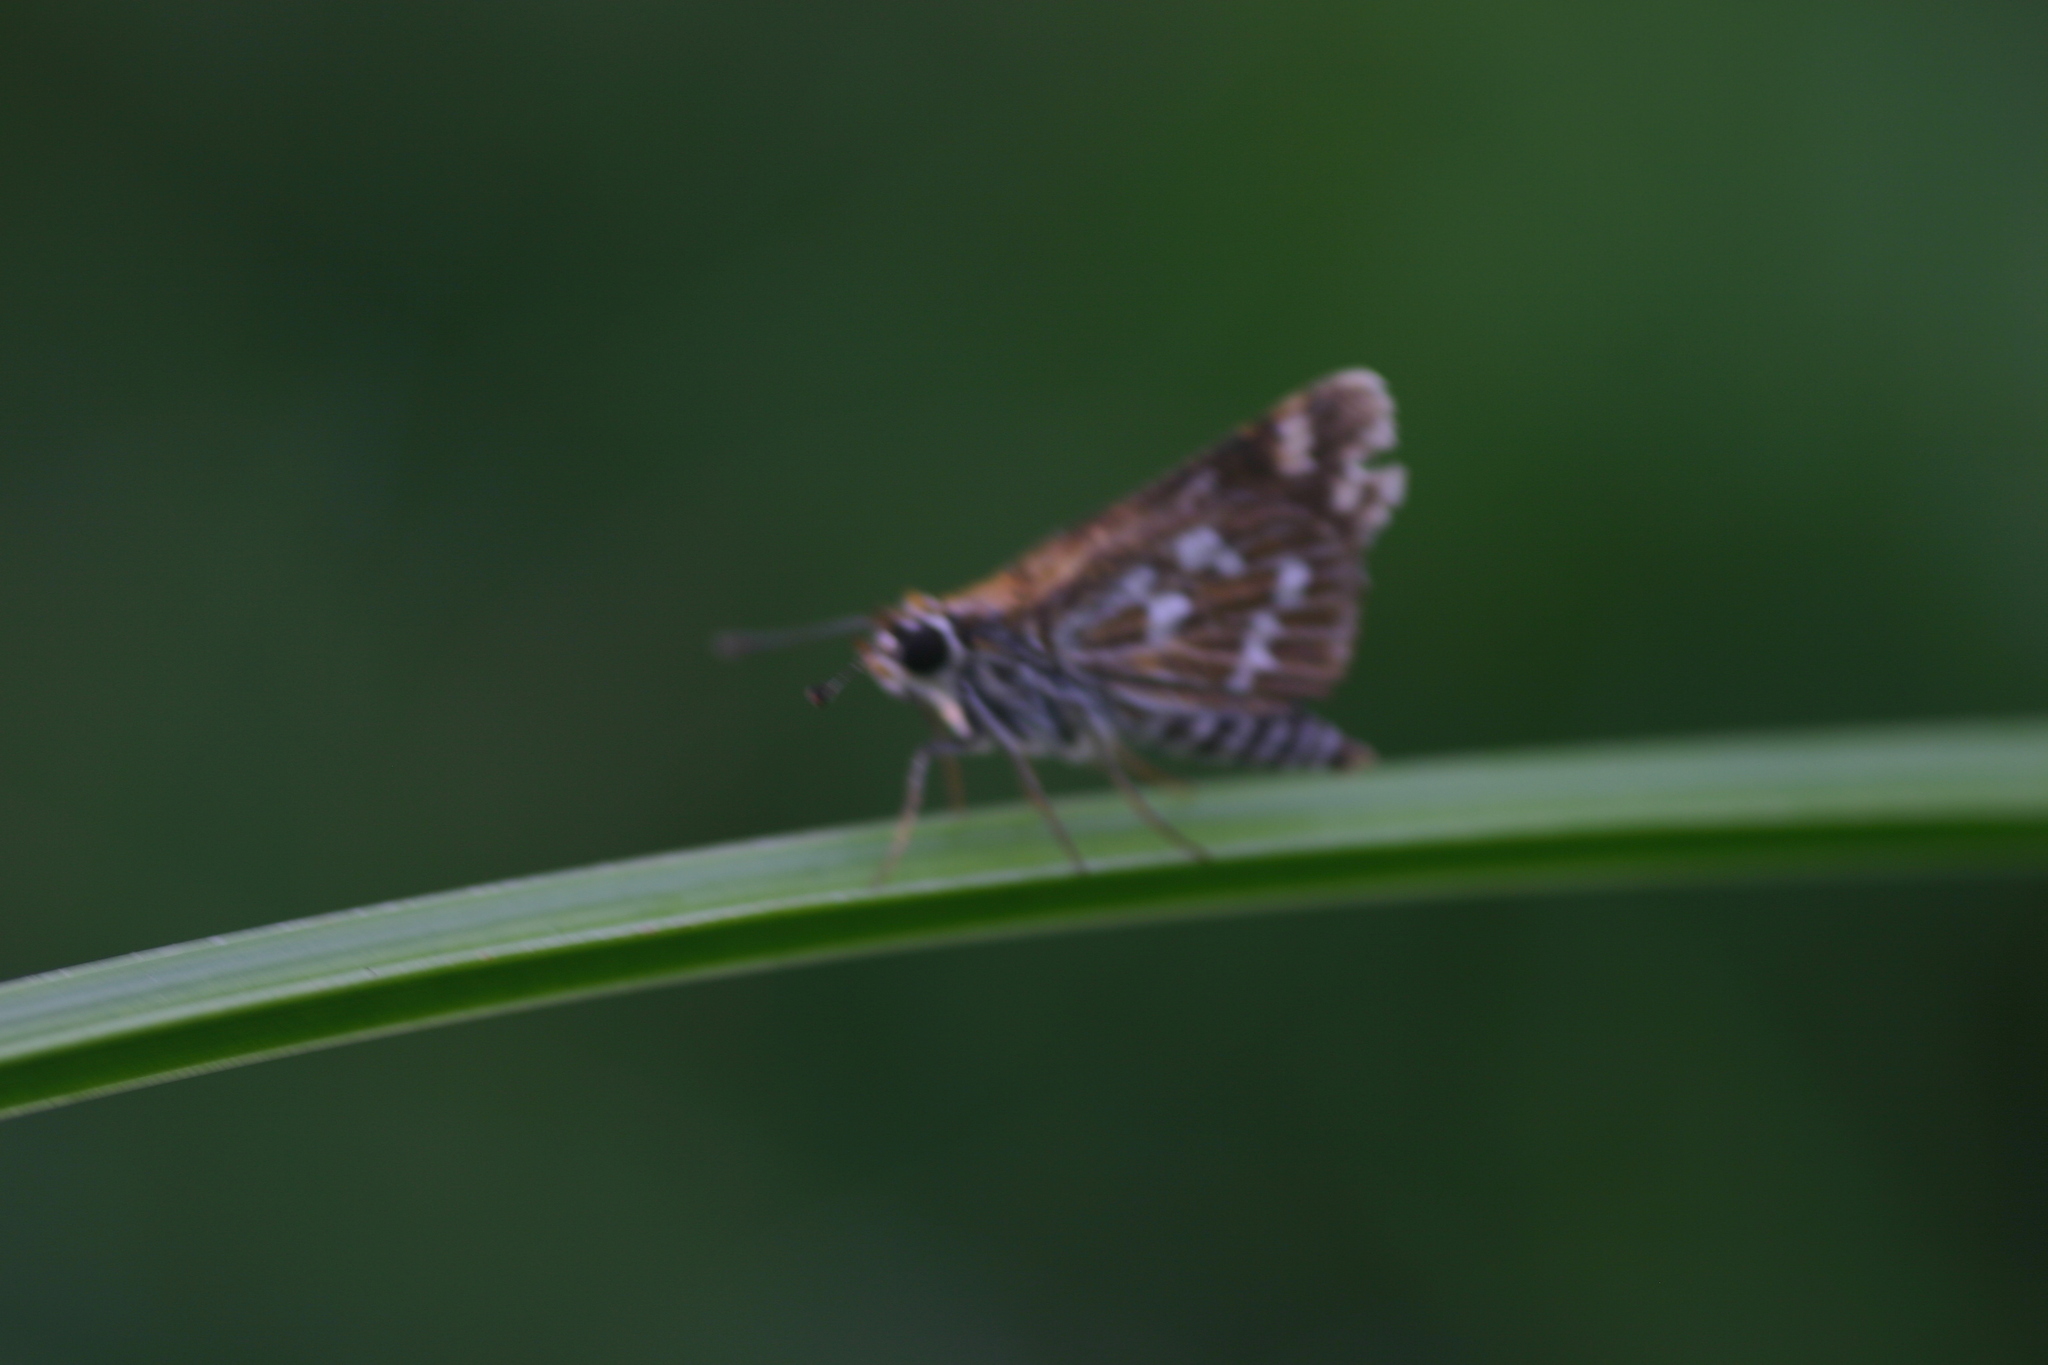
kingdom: Animalia
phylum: Arthropoda
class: Insecta
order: Lepidoptera
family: Hesperiidae
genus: Taractrocera
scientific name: Taractrocera maevius
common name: Common grass-dart
